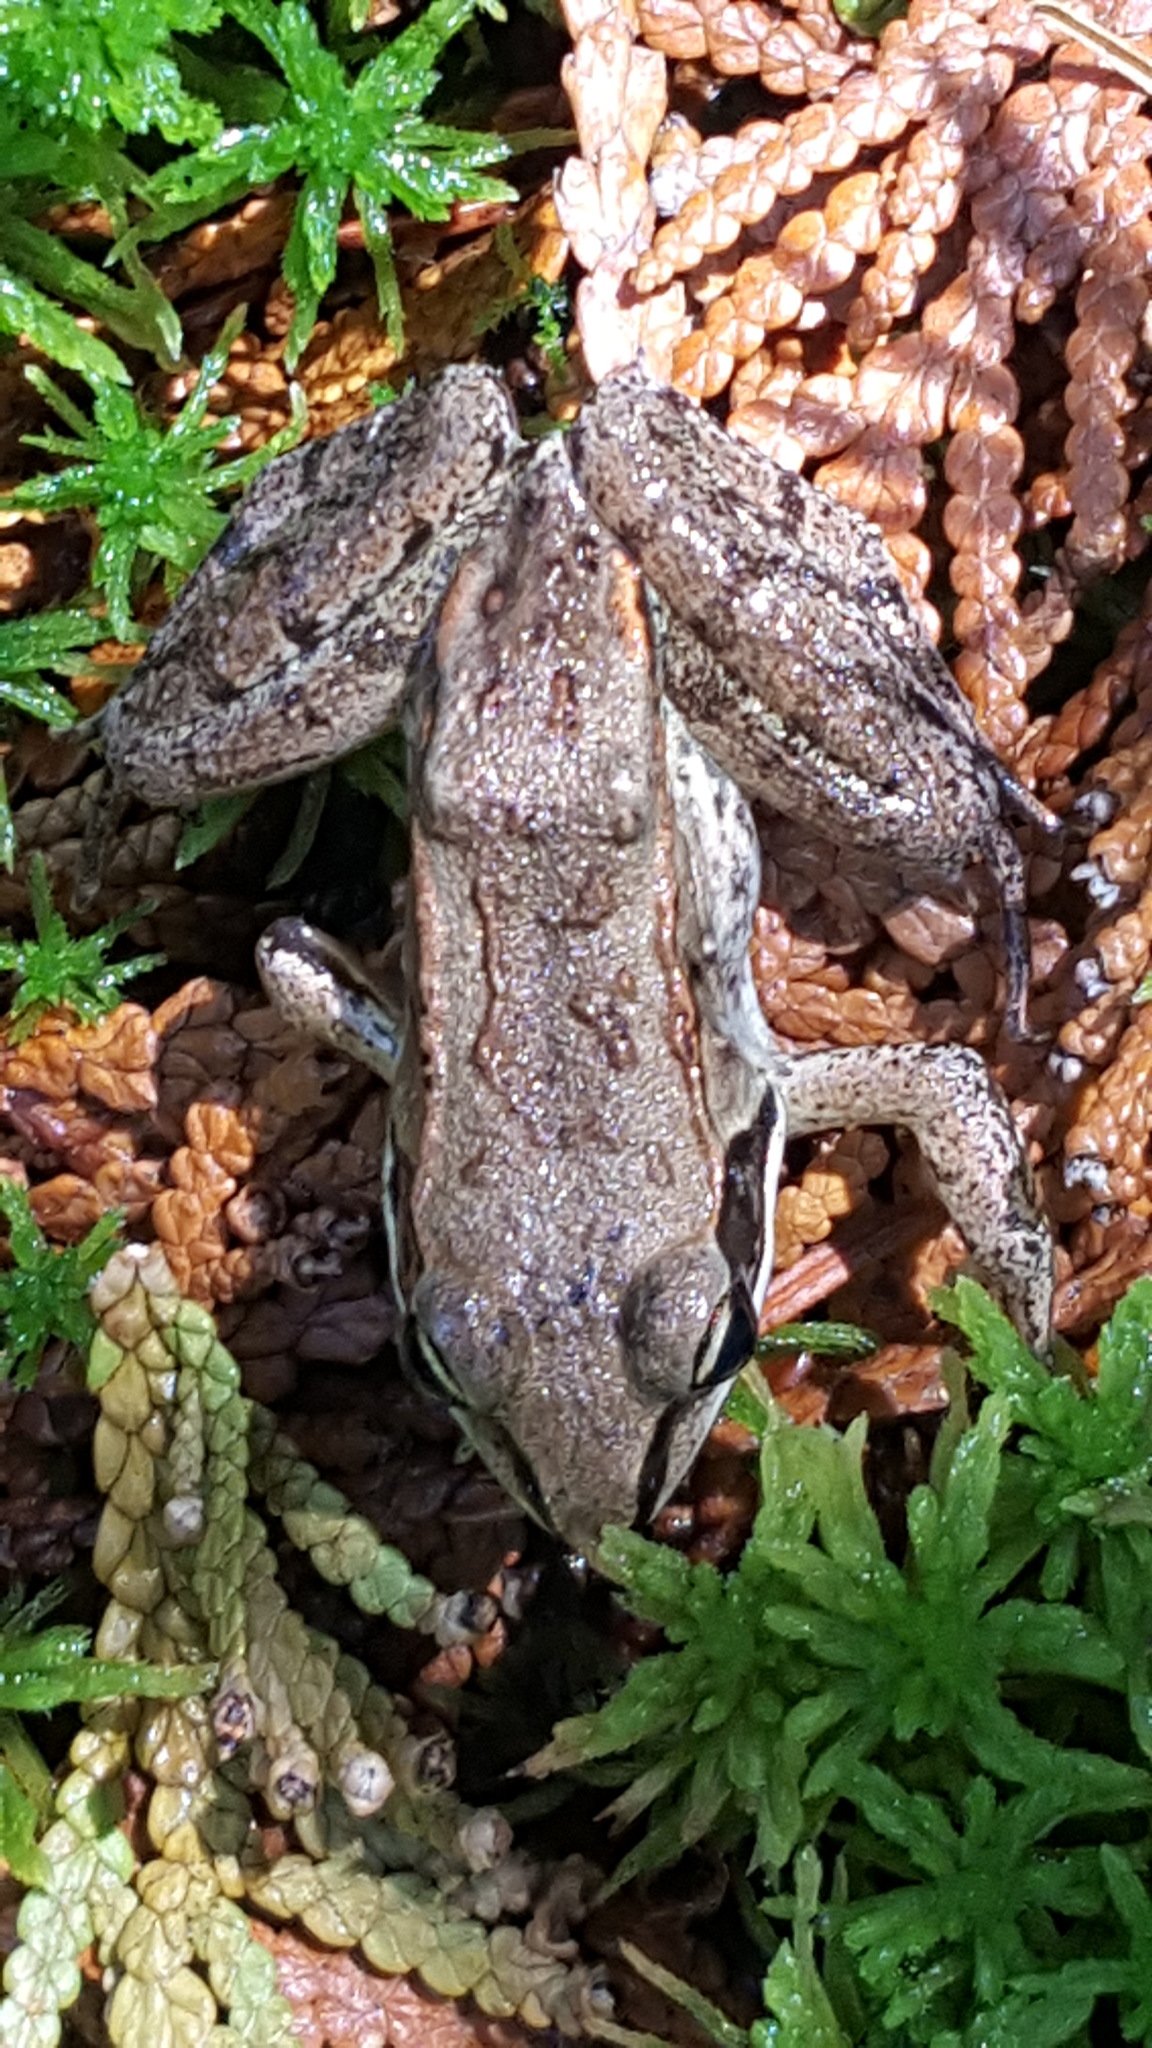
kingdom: Animalia
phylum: Chordata
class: Amphibia
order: Anura
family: Ranidae
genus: Lithobates
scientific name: Lithobates sylvaticus
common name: Wood frog
